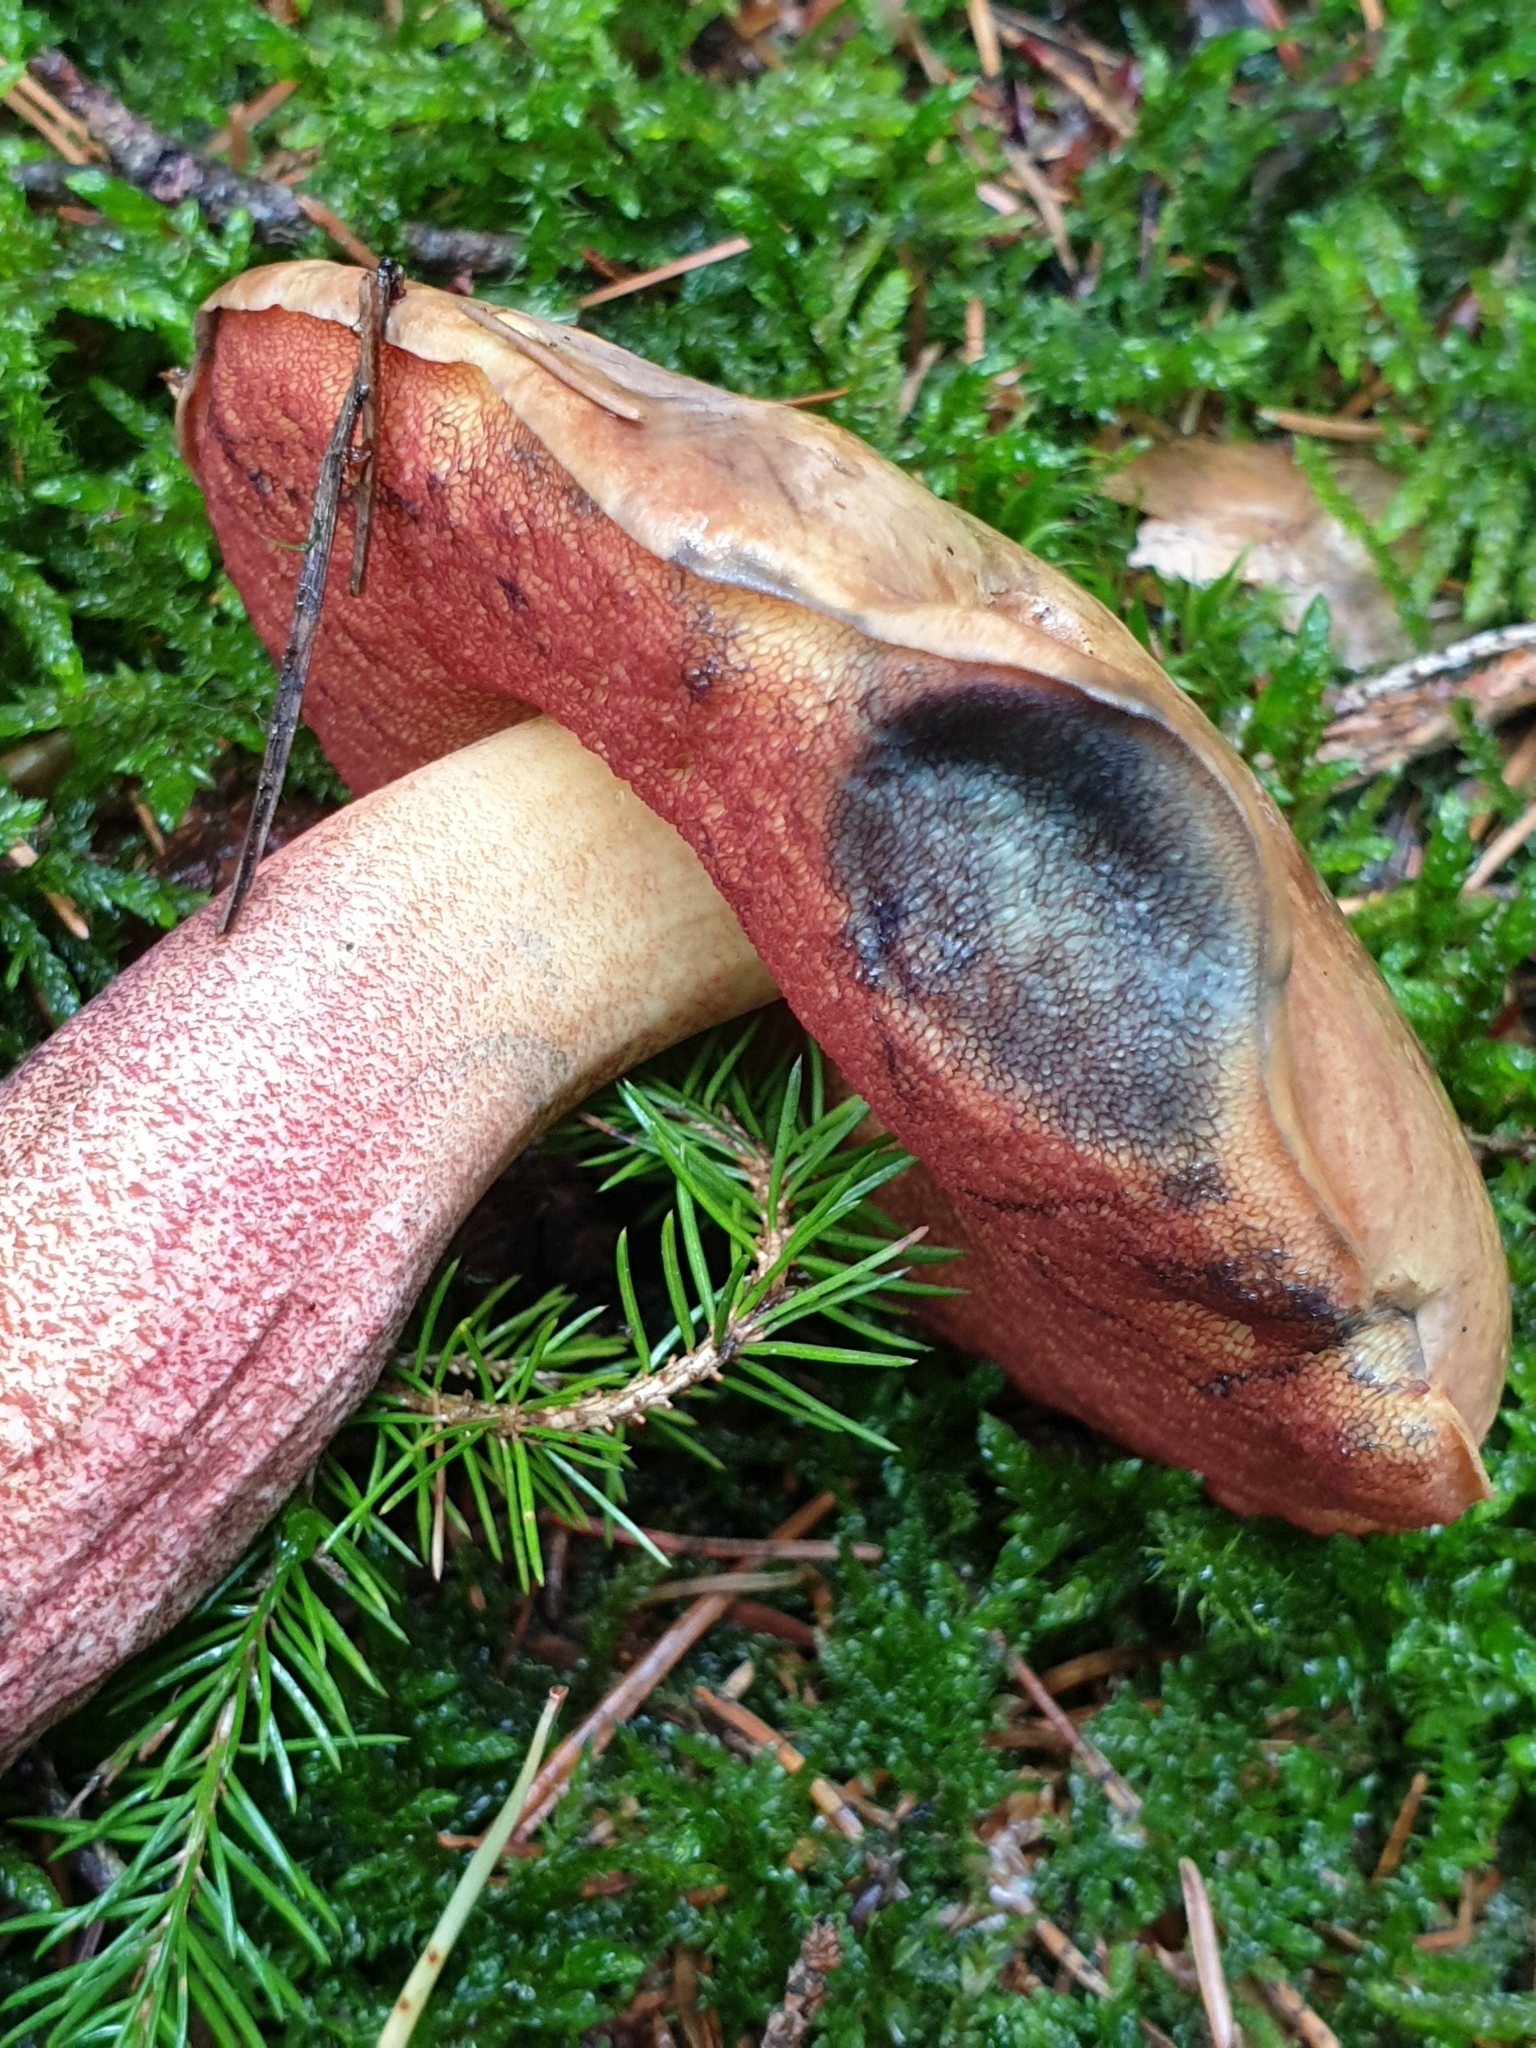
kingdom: Fungi
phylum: Basidiomycota
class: Agaricomycetes
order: Boletales
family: Boletaceae
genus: Neoboletus
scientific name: Neoboletus luridiformis
